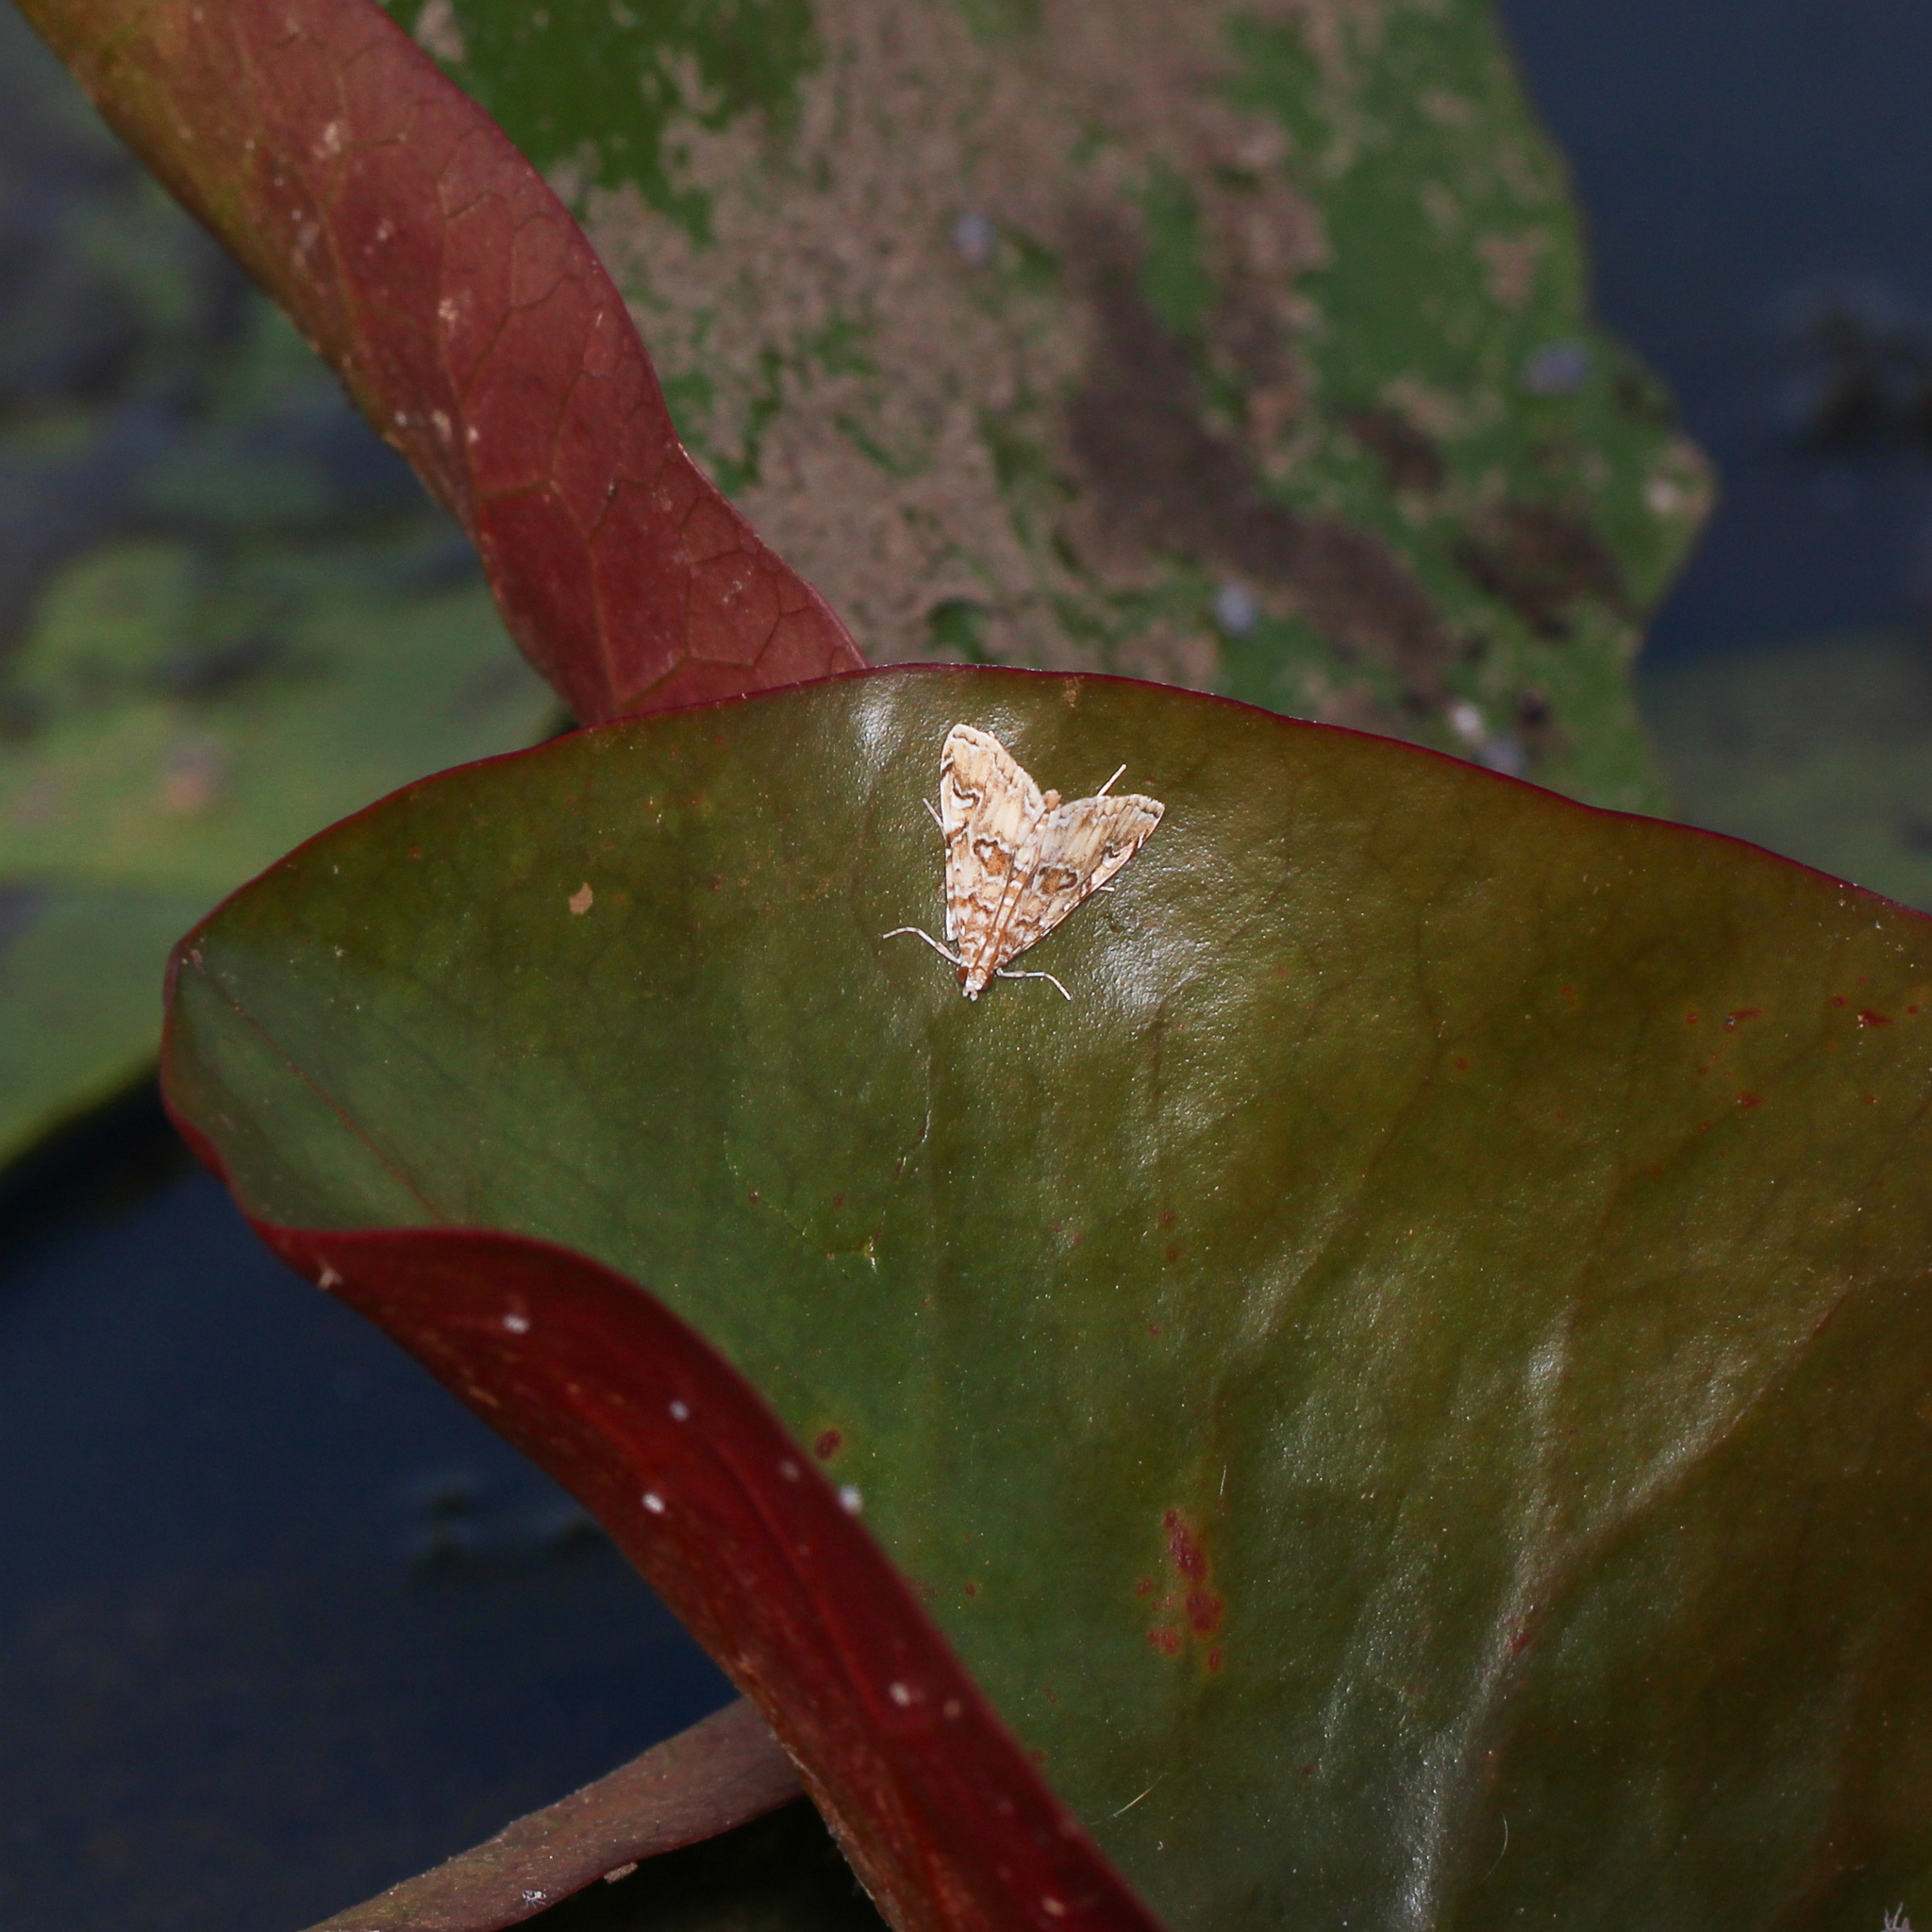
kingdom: Animalia
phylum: Arthropoda
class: Insecta
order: Lepidoptera
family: Crambidae
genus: Elophila
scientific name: Elophila gyralis
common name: Waterlily borer moth
